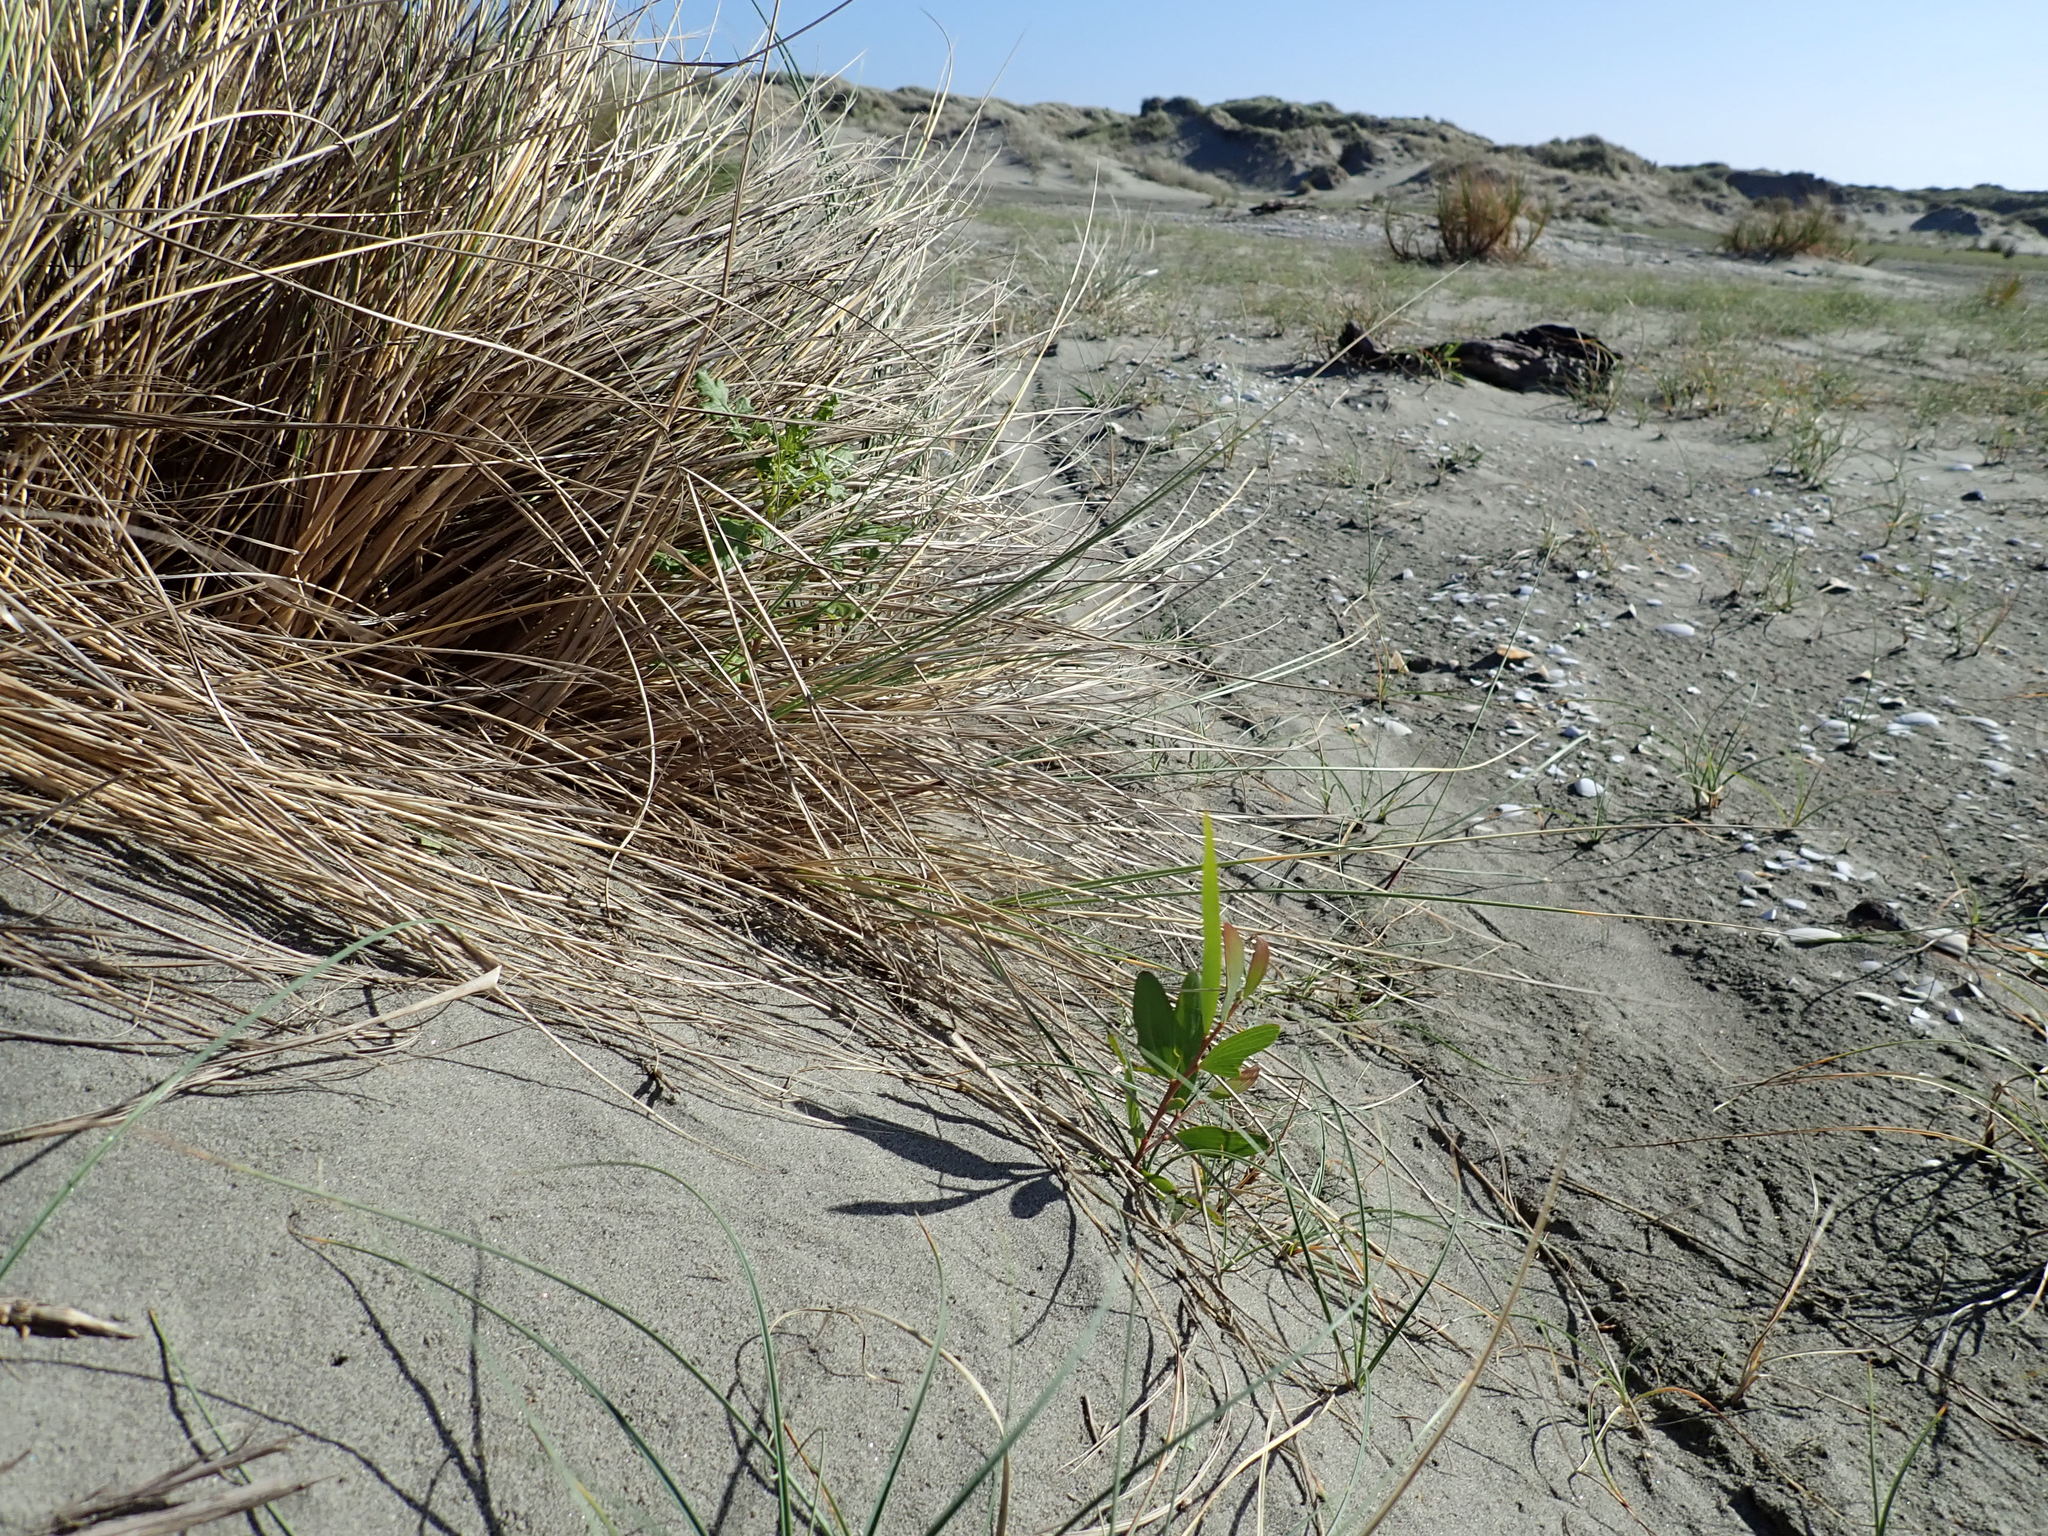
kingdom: Plantae
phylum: Tracheophyta
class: Magnoliopsida
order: Fabales
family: Fabaceae
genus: Acacia
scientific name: Acacia longifolia
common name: Sydney golden wattle
